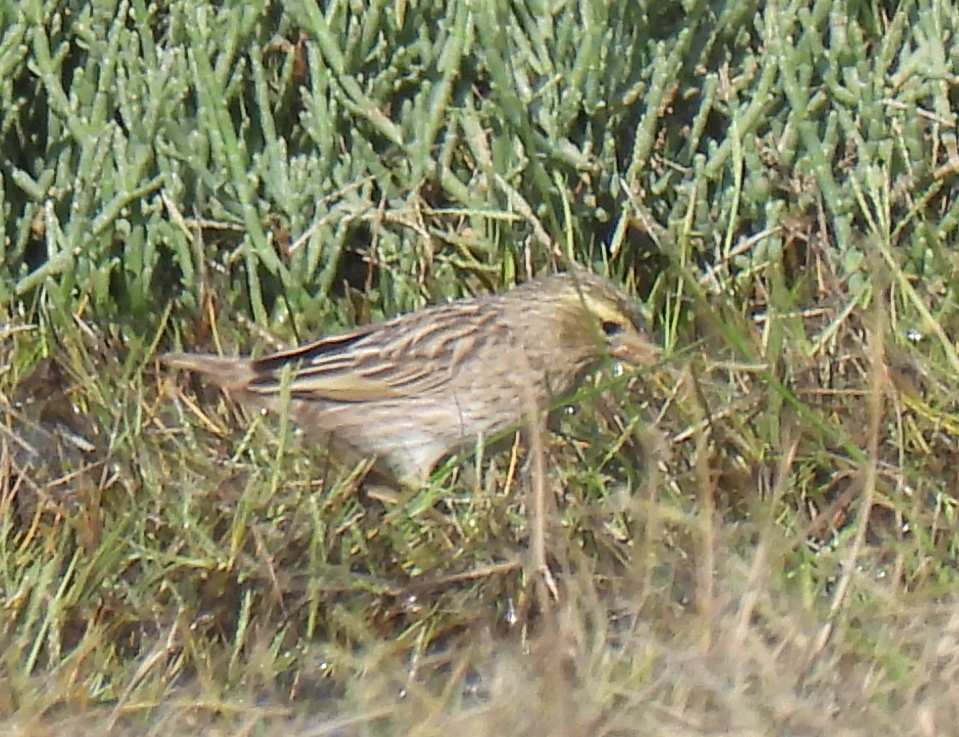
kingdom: Animalia
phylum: Chordata
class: Aves
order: Passeriformes
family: Ploceidae
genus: Euplectes
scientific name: Euplectes capensis
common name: Yellow bishop
